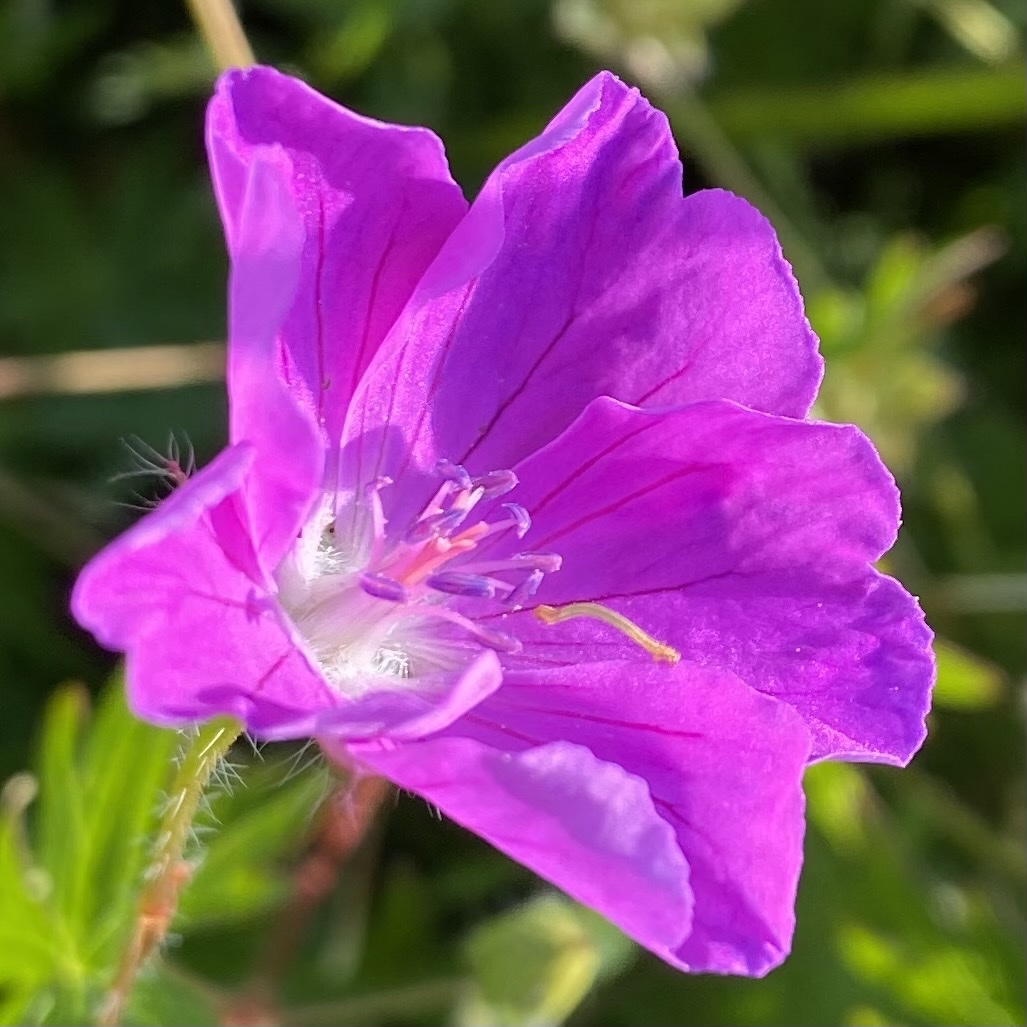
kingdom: Plantae
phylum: Tracheophyta
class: Magnoliopsida
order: Geraniales
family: Geraniaceae
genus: Geranium
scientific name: Geranium sanguineum
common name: Bloody crane's-bill
